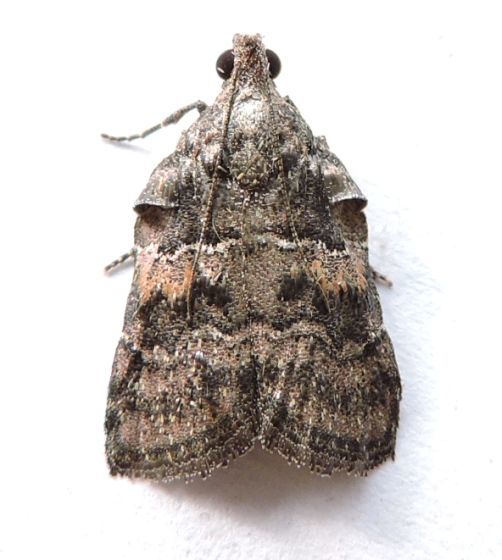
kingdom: Animalia
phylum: Arthropoda
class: Insecta
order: Lepidoptera
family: Pyralidae
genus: Satole
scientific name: Satole ligniperdalis
